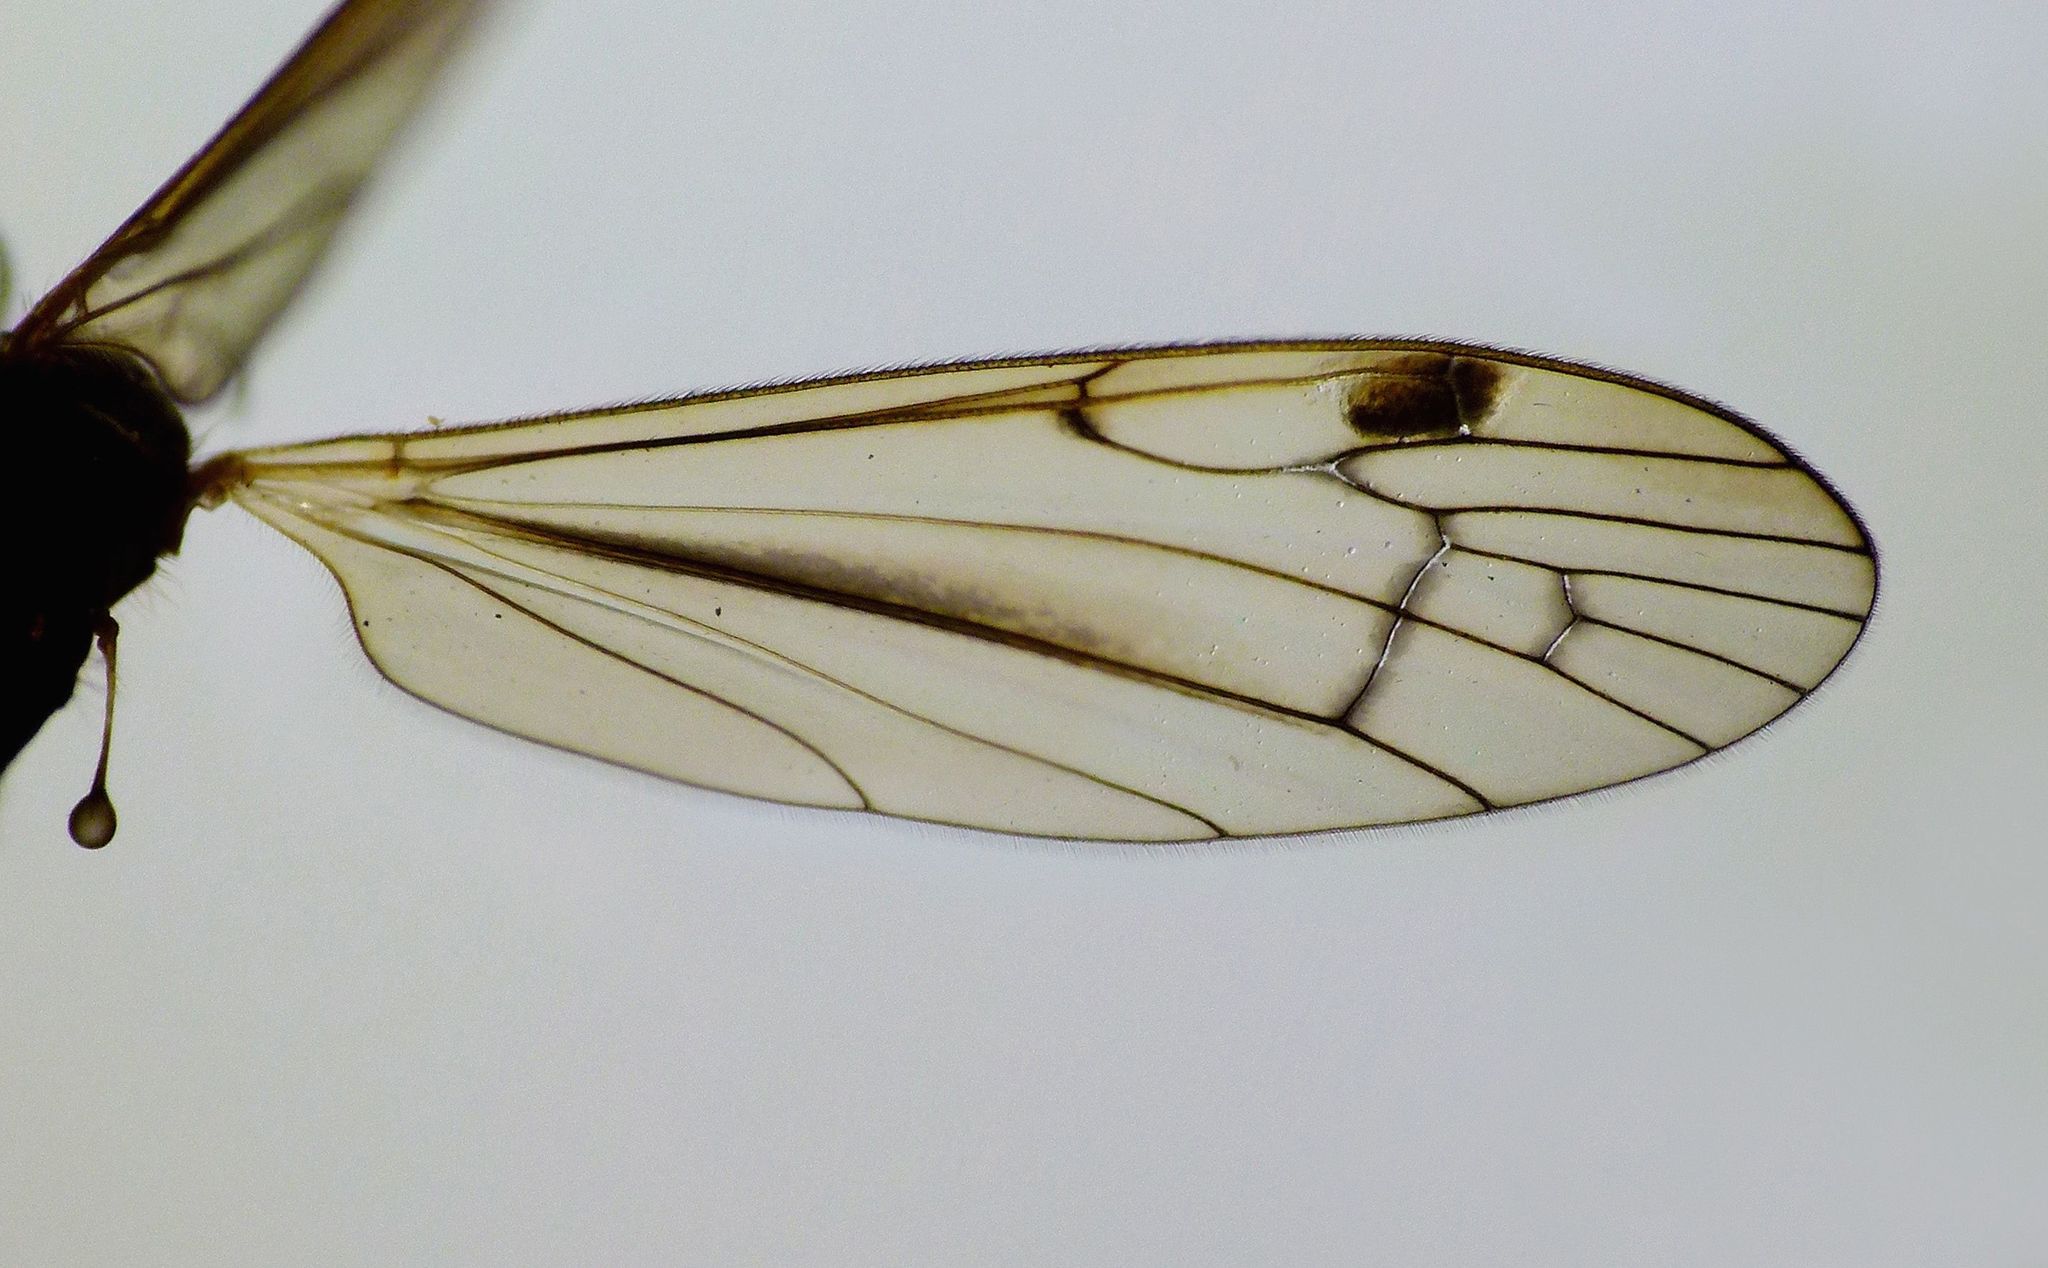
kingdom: Animalia
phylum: Arthropoda
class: Insecta
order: Diptera
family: Limoniidae
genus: Dicranomyia
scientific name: Dicranomyia cubitalis
